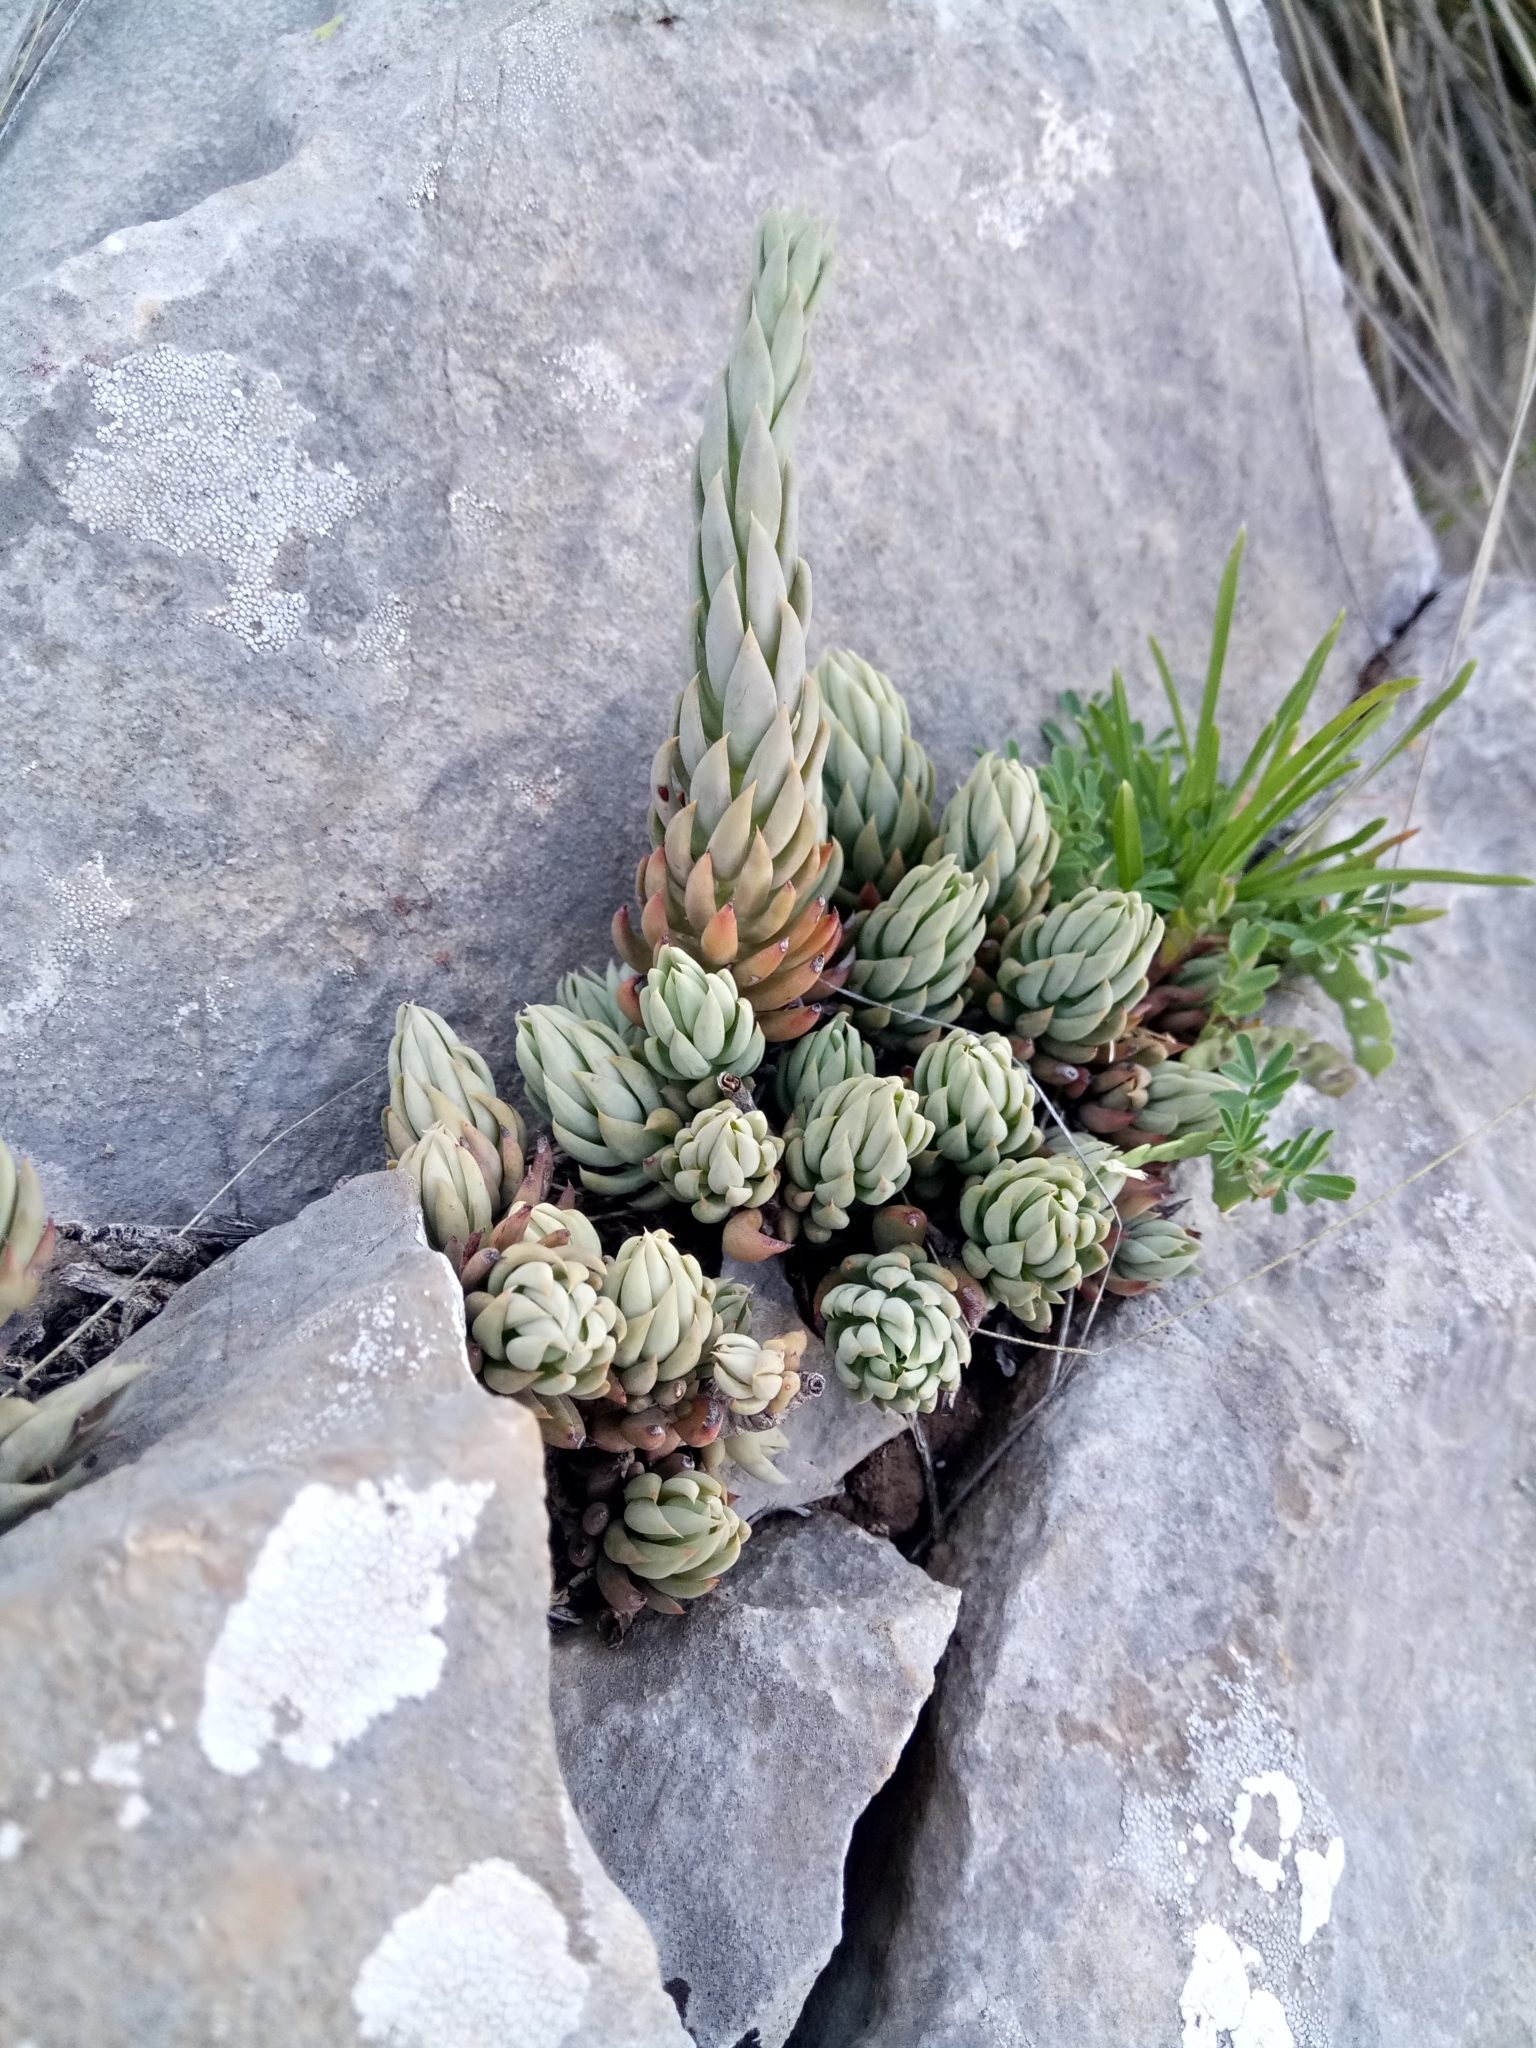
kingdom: Plantae
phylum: Tracheophyta
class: Magnoliopsida
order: Saxifragales
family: Crassulaceae
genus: Petrosedum
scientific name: Petrosedum sediforme
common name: Pale stonecrop
